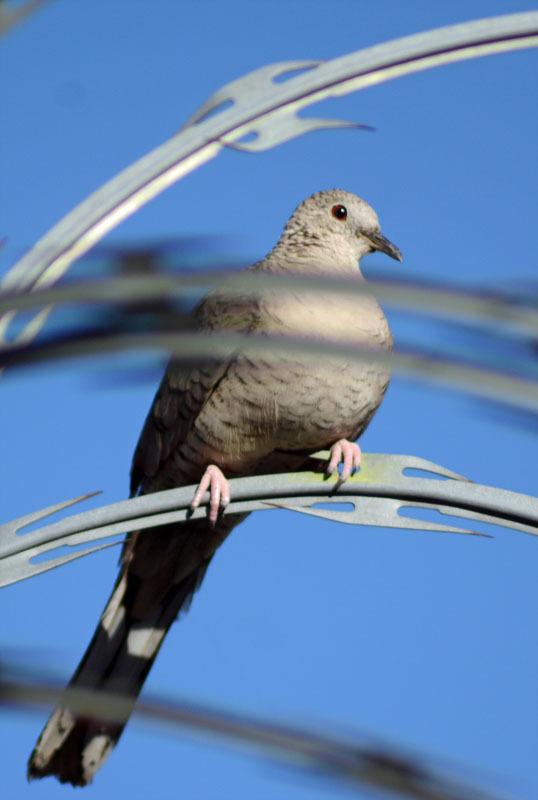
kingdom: Animalia
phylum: Chordata
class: Aves
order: Columbiformes
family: Columbidae
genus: Columbina
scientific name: Columbina inca
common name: Inca dove
